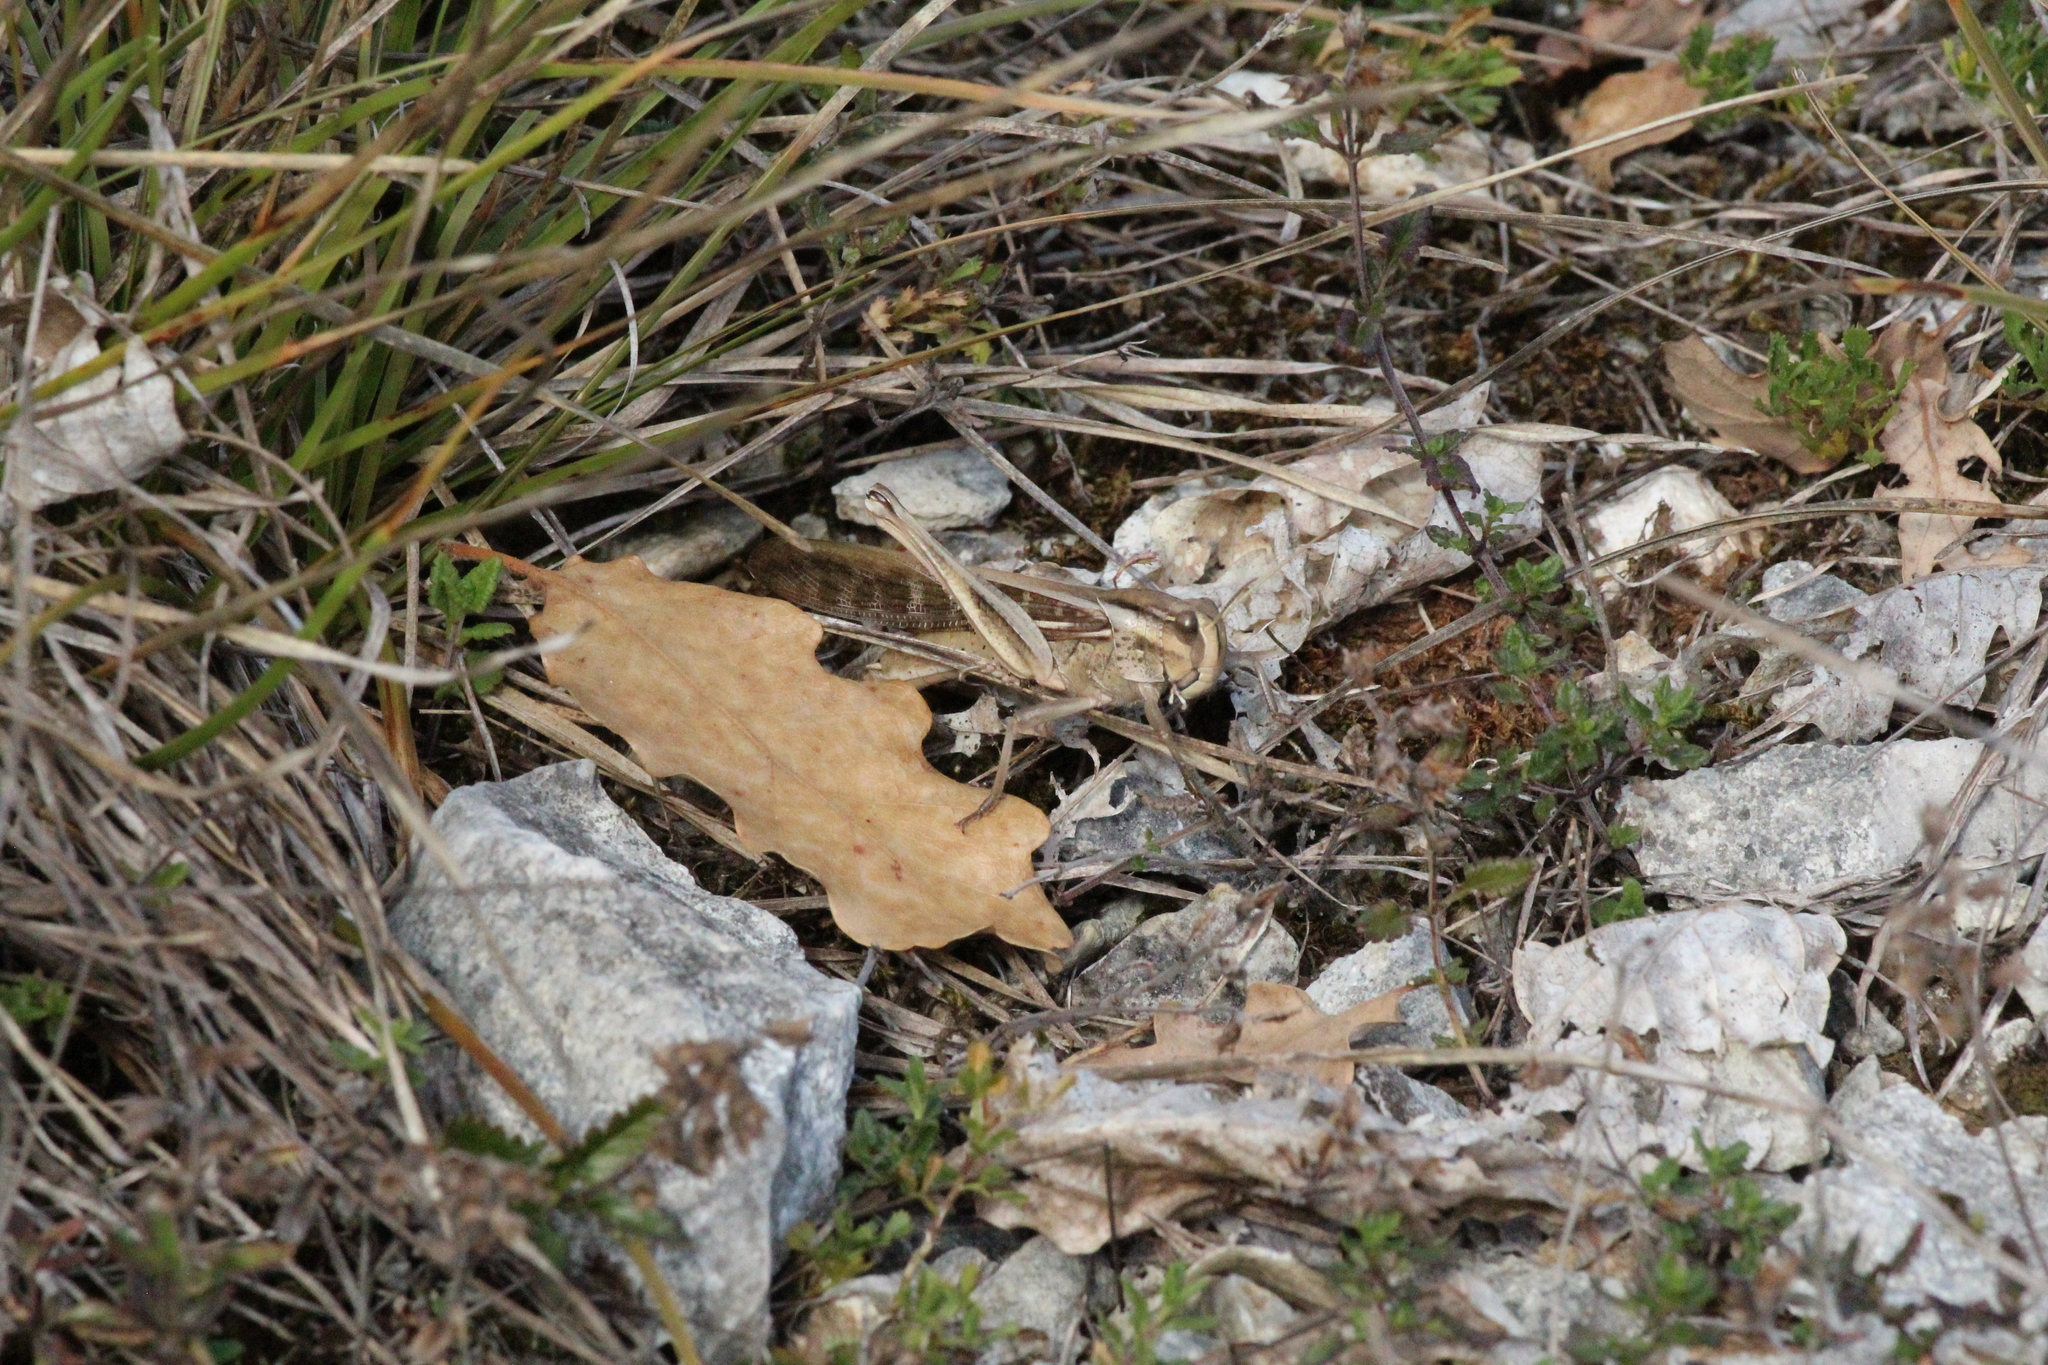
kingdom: Animalia
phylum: Arthropoda
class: Insecta
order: Orthoptera
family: Acrididae
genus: Locusta
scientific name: Locusta migratoria
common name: Migratory locust
